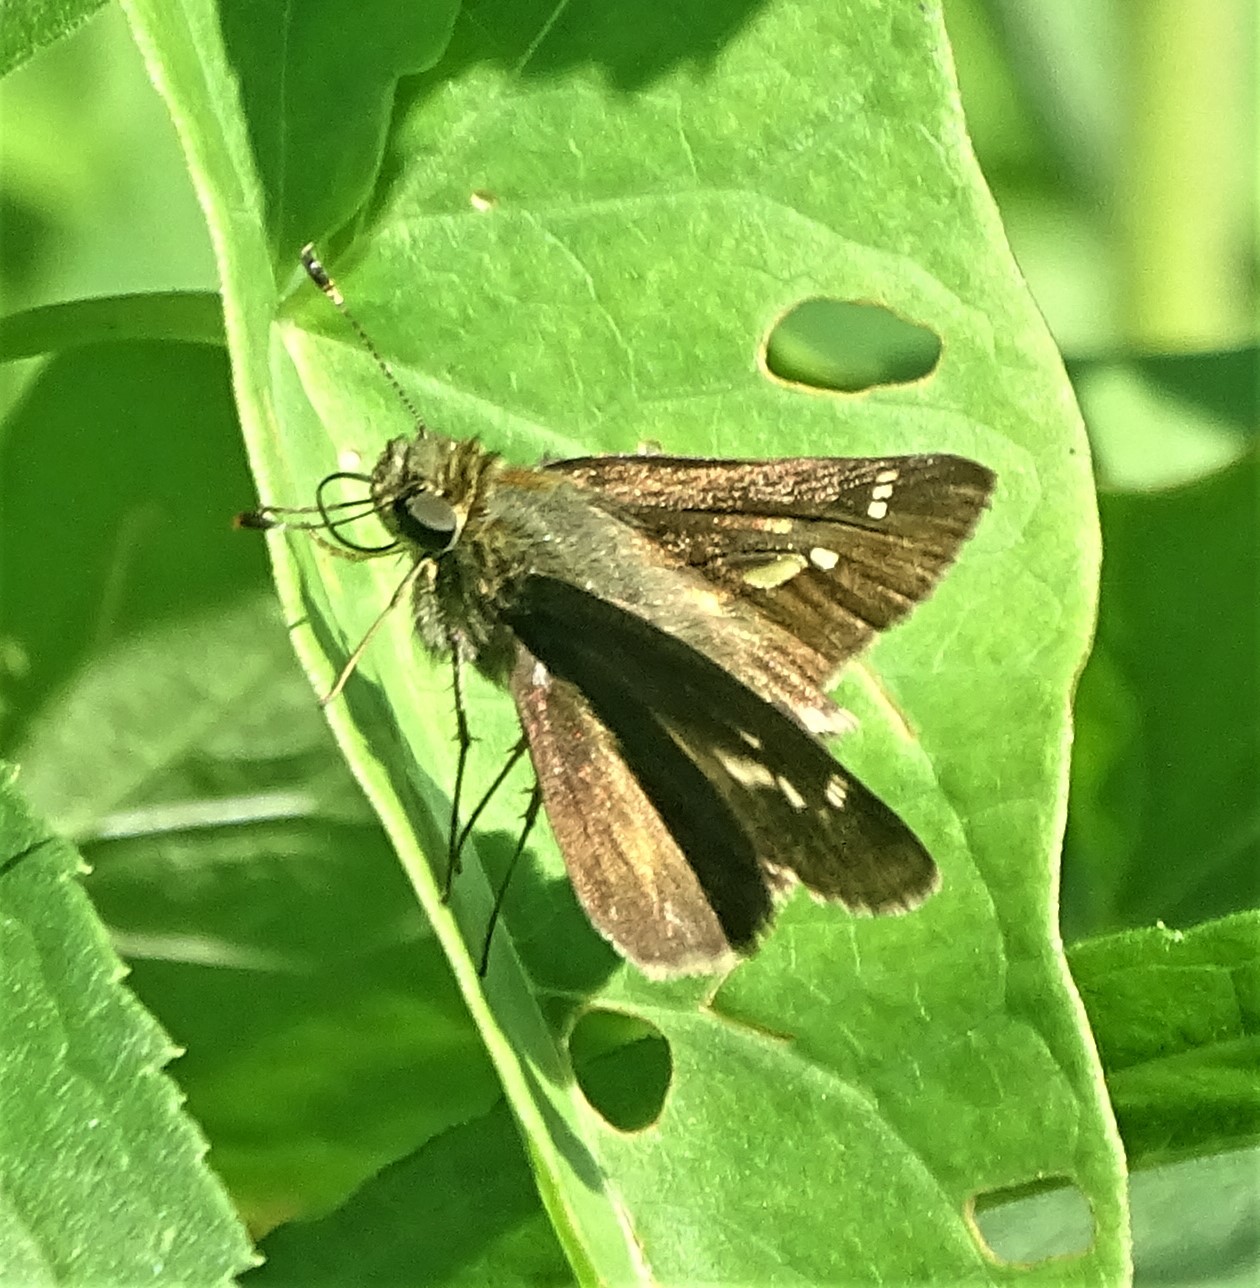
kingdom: Animalia
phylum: Arthropoda
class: Insecta
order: Lepidoptera
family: Hesperiidae
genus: Vernia
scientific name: Vernia verna
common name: Little glassywing
